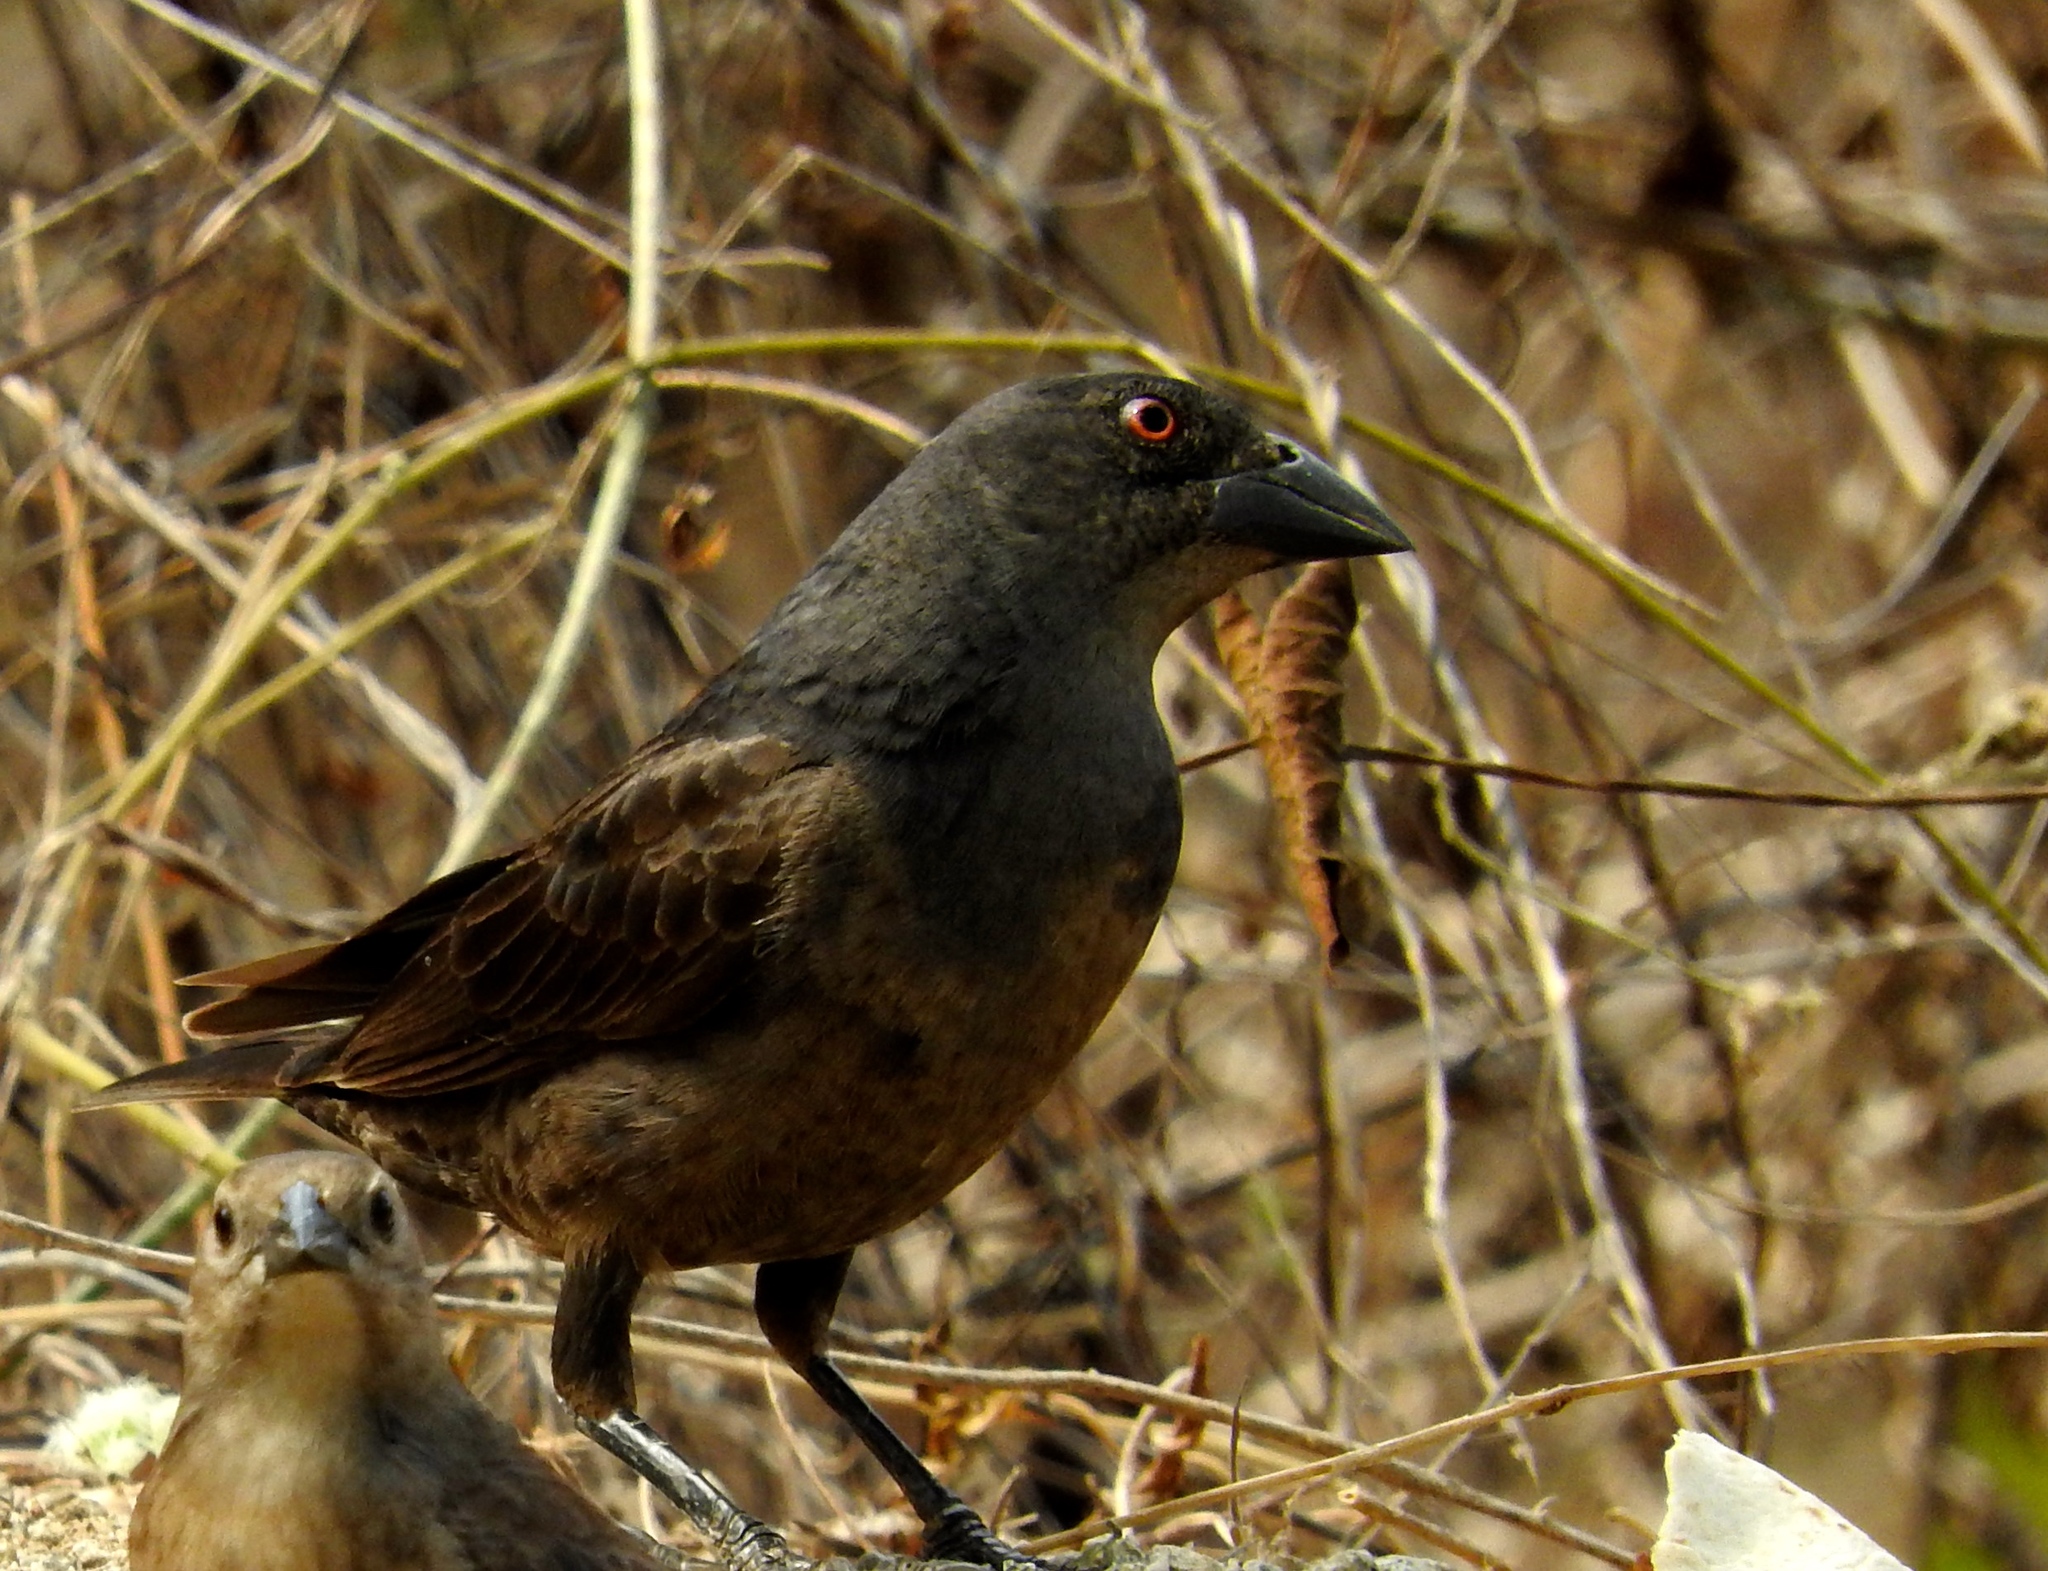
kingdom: Animalia
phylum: Chordata
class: Aves
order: Passeriformes
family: Icteridae
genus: Molothrus
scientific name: Molothrus aeneus
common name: Bronzed cowbird
